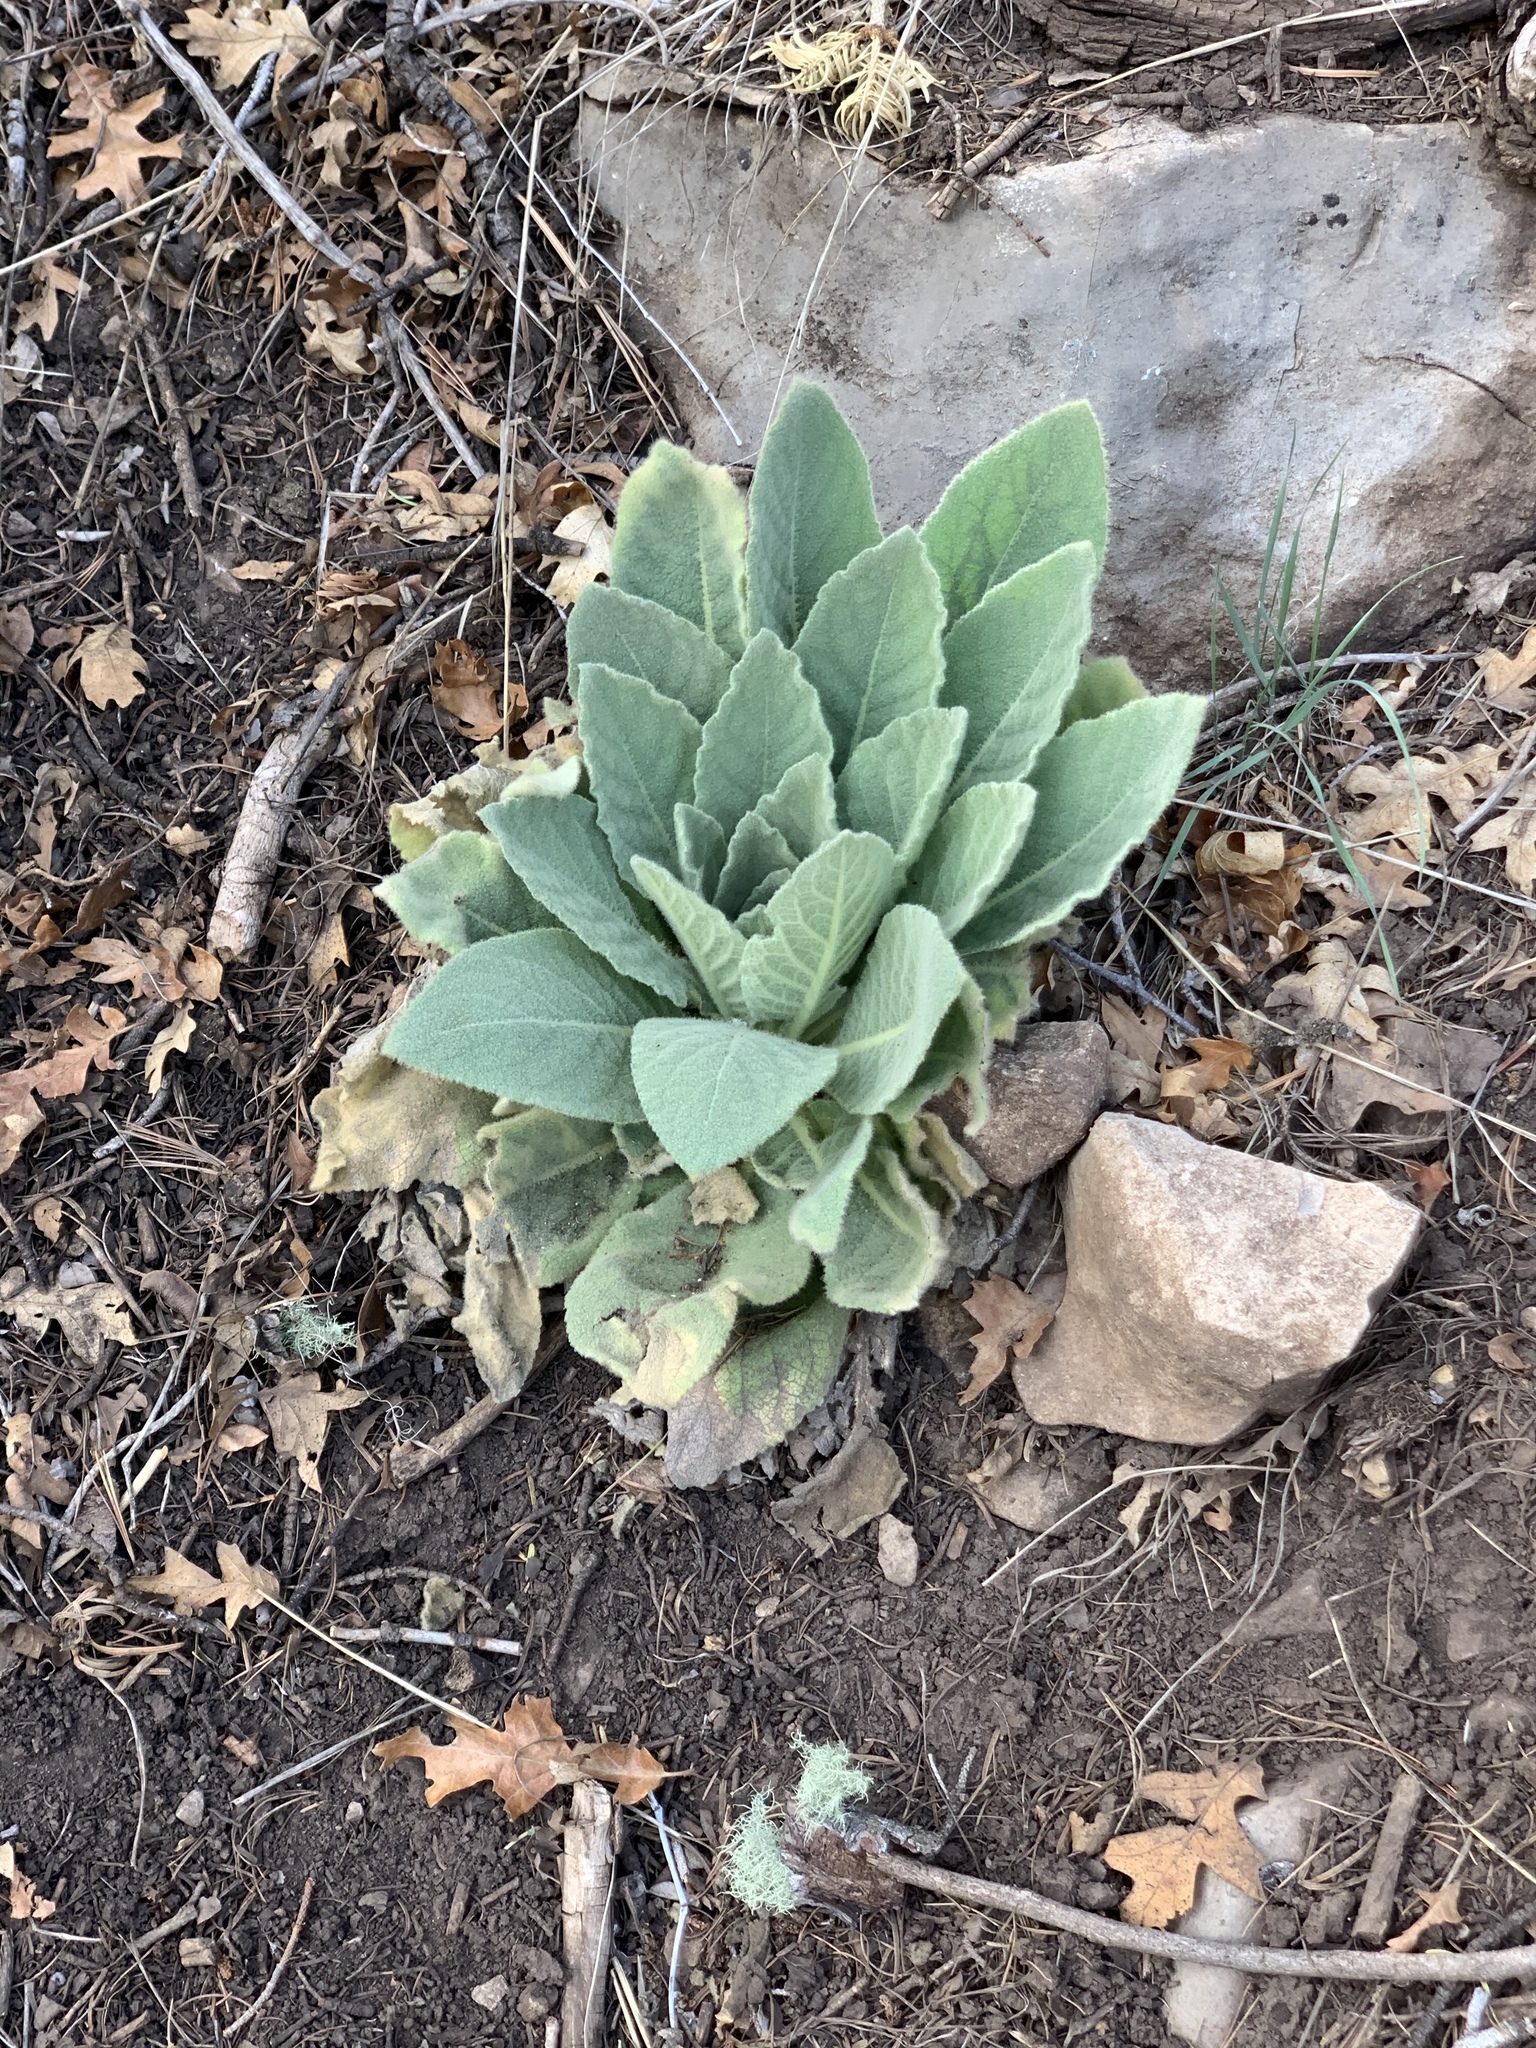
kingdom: Plantae
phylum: Tracheophyta
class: Magnoliopsida
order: Lamiales
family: Scrophulariaceae
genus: Verbascum
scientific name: Verbascum thapsus
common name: Common mullein
